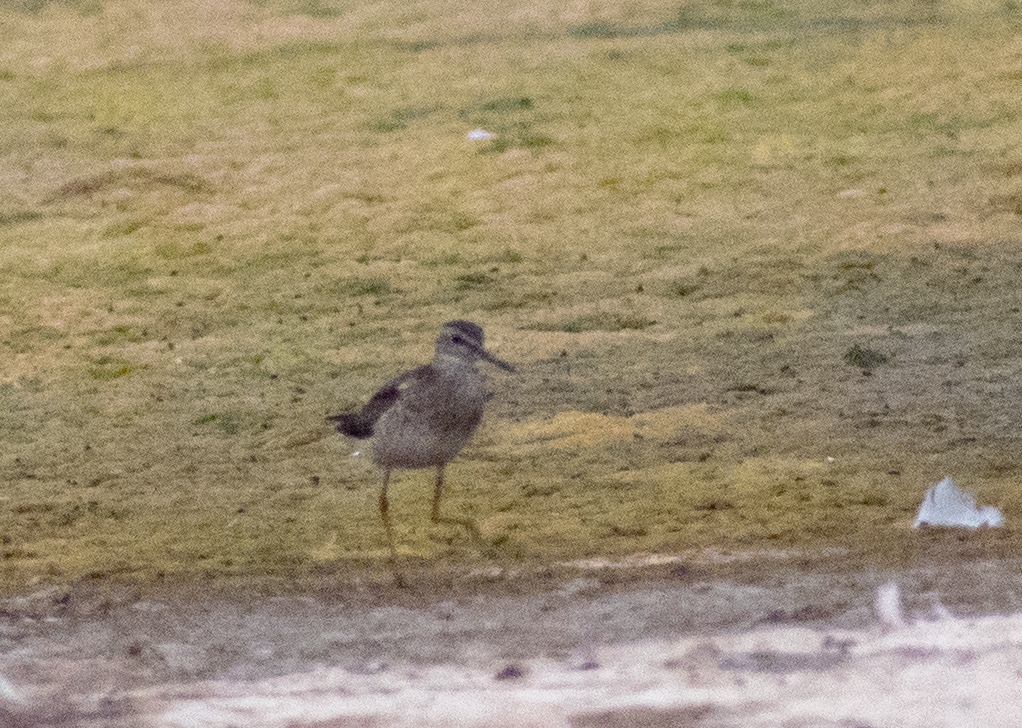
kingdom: Animalia
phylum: Chordata
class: Aves
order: Charadriiformes
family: Scolopacidae
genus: Tringa
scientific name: Tringa glareola
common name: Wood sandpiper
